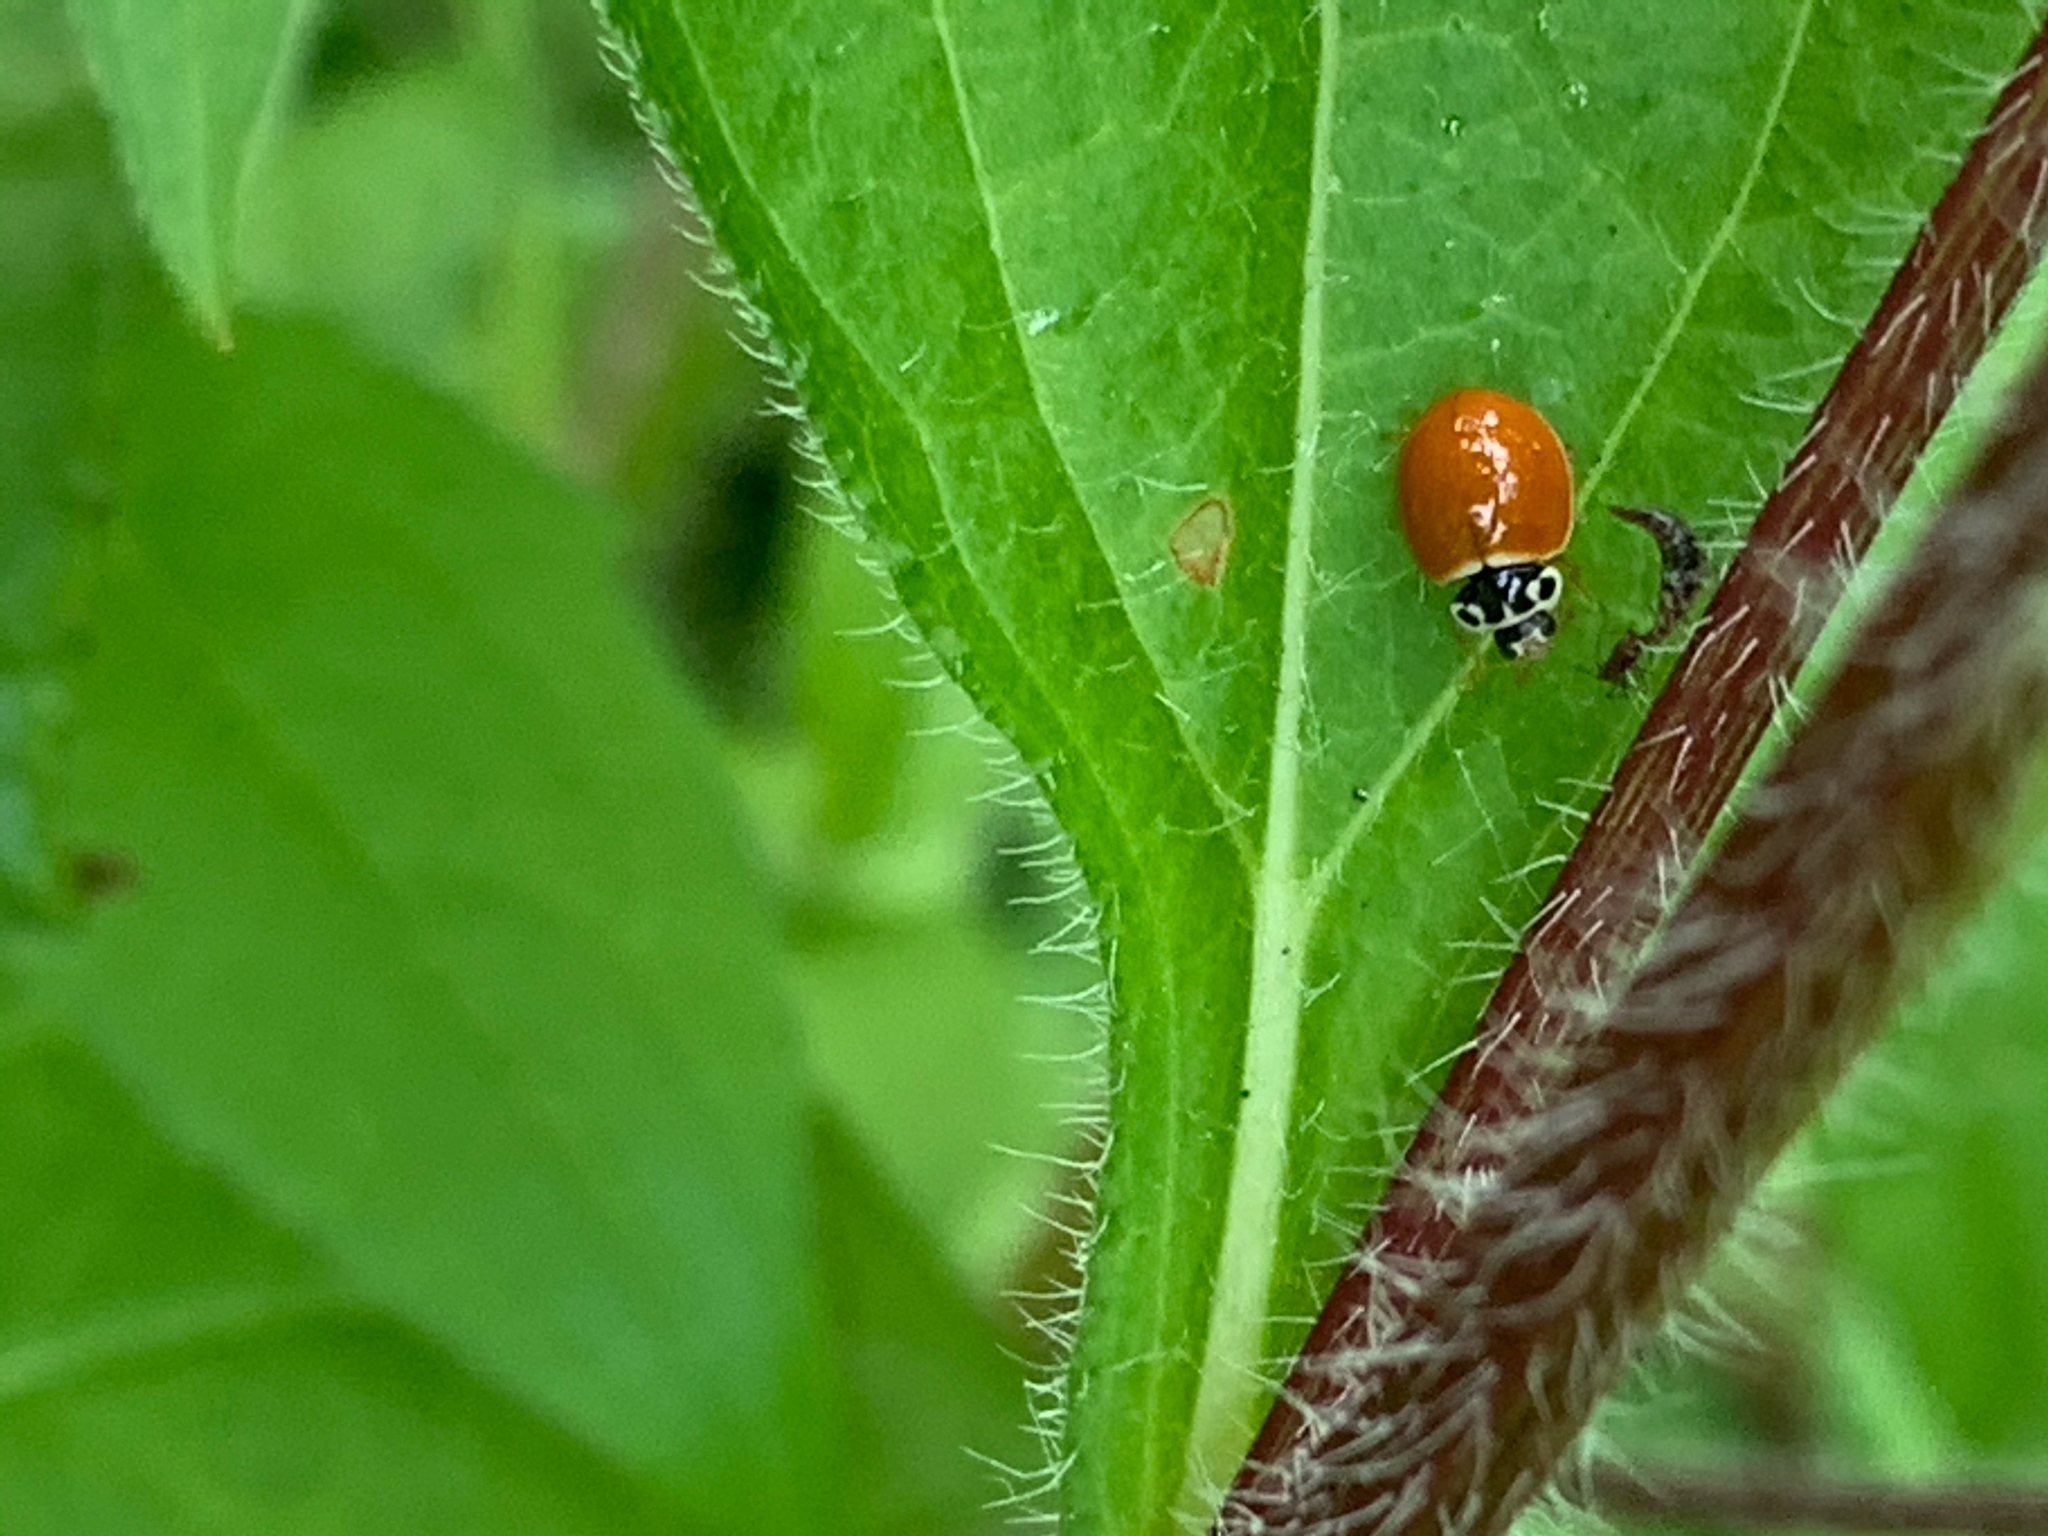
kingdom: Animalia
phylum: Arthropoda
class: Insecta
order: Coleoptera
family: Coccinellidae
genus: Cycloneda
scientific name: Cycloneda munda
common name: Polished lady beetle
